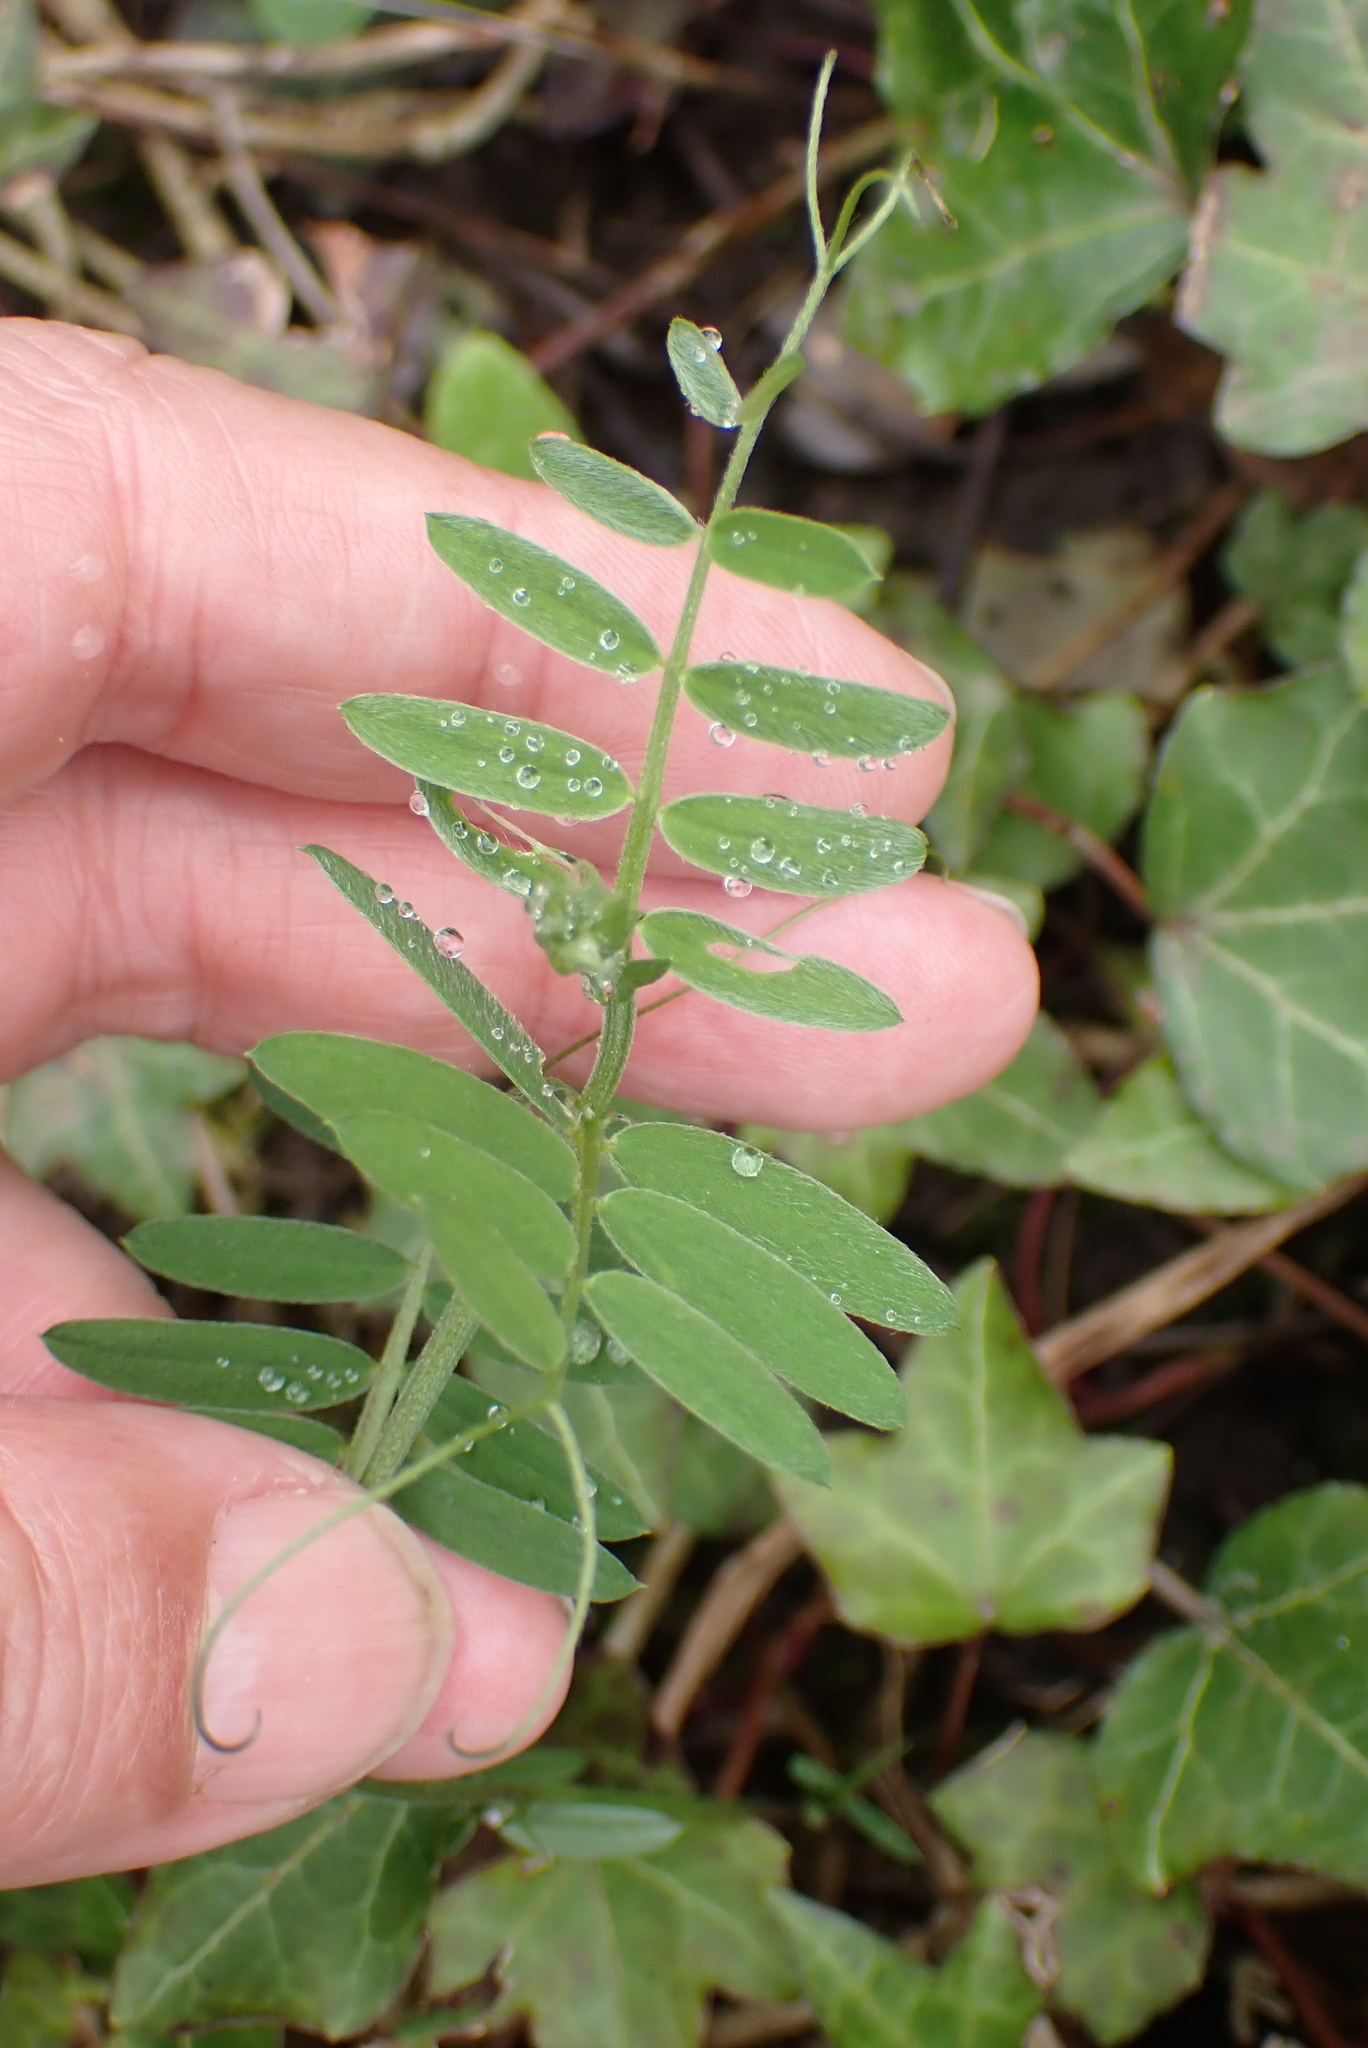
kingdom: Plantae
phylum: Tracheophyta
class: Magnoliopsida
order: Fabales
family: Fabaceae
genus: Vicia
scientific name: Vicia cracca
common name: Bird vetch
